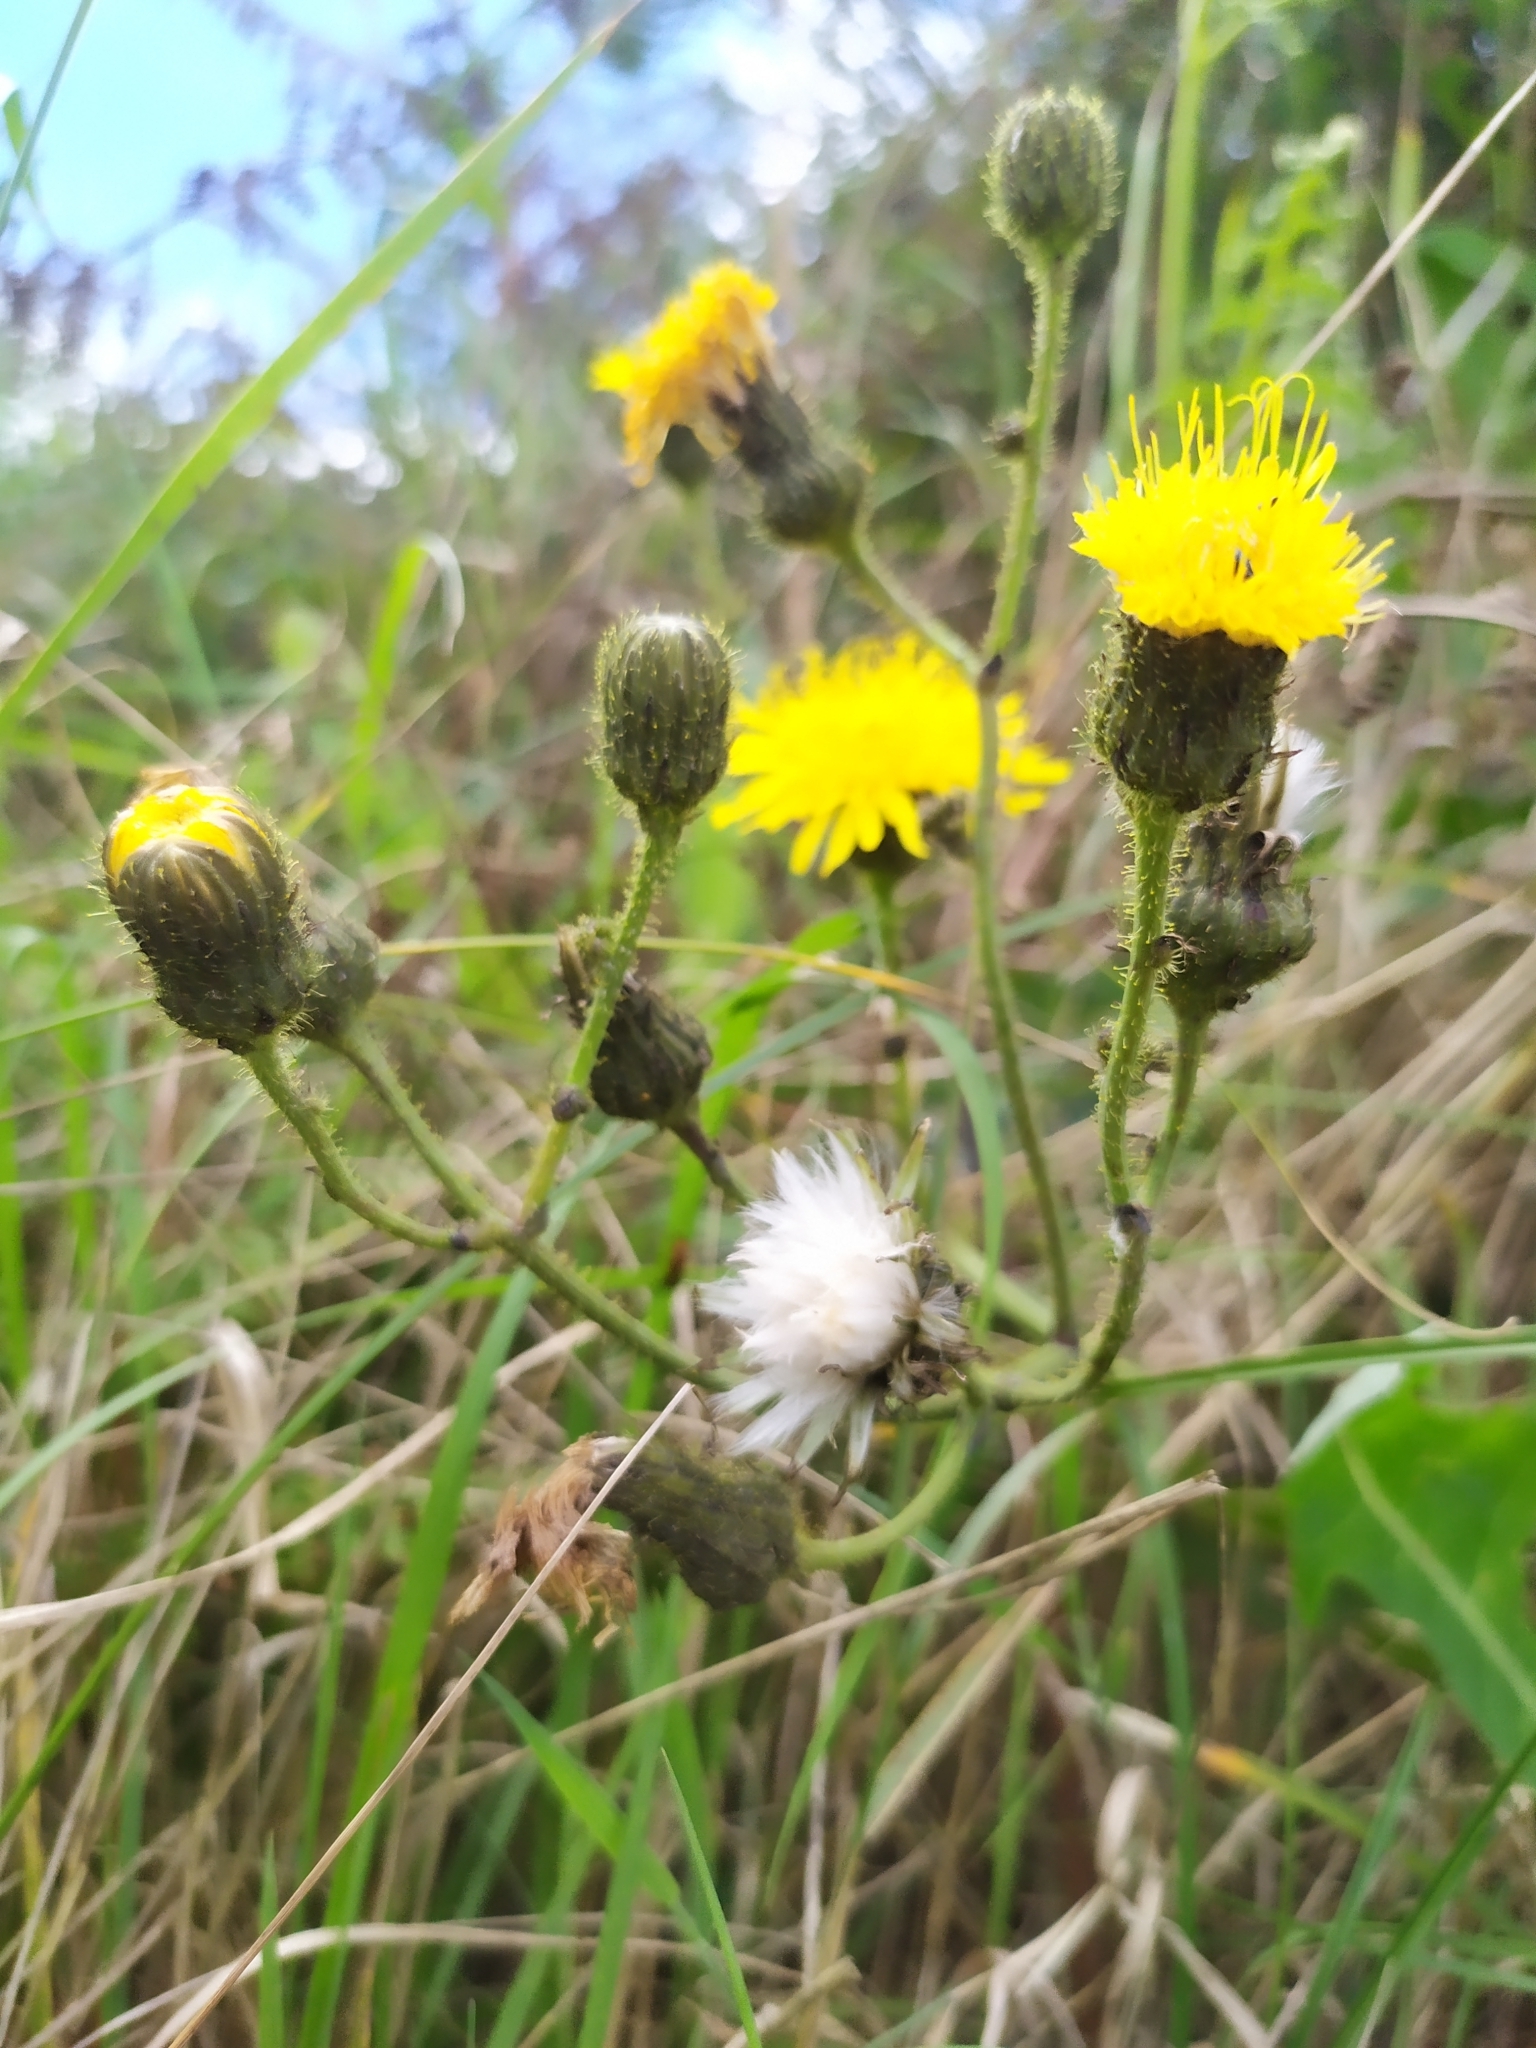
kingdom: Plantae
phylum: Tracheophyta
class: Magnoliopsida
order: Asterales
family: Asteraceae
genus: Sonchus
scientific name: Sonchus arvensis
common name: Perennial sow-thistle
